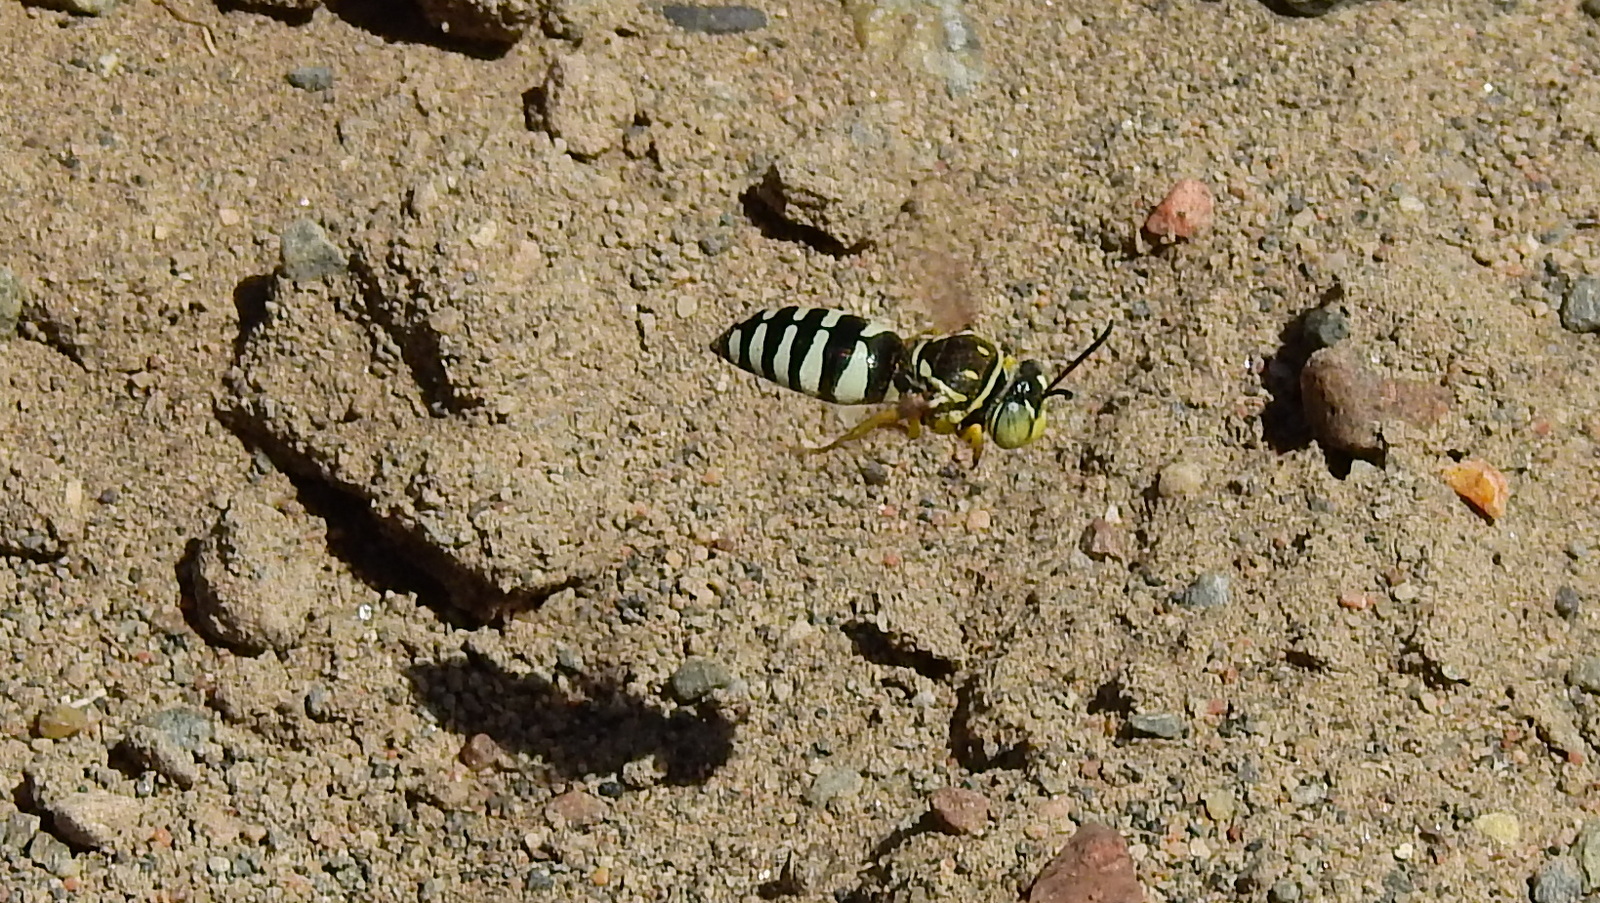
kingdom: Animalia
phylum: Arthropoda
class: Insecta
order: Hymenoptera
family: Crabronidae
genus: Bicyrtes
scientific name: Bicyrtes mendicus
